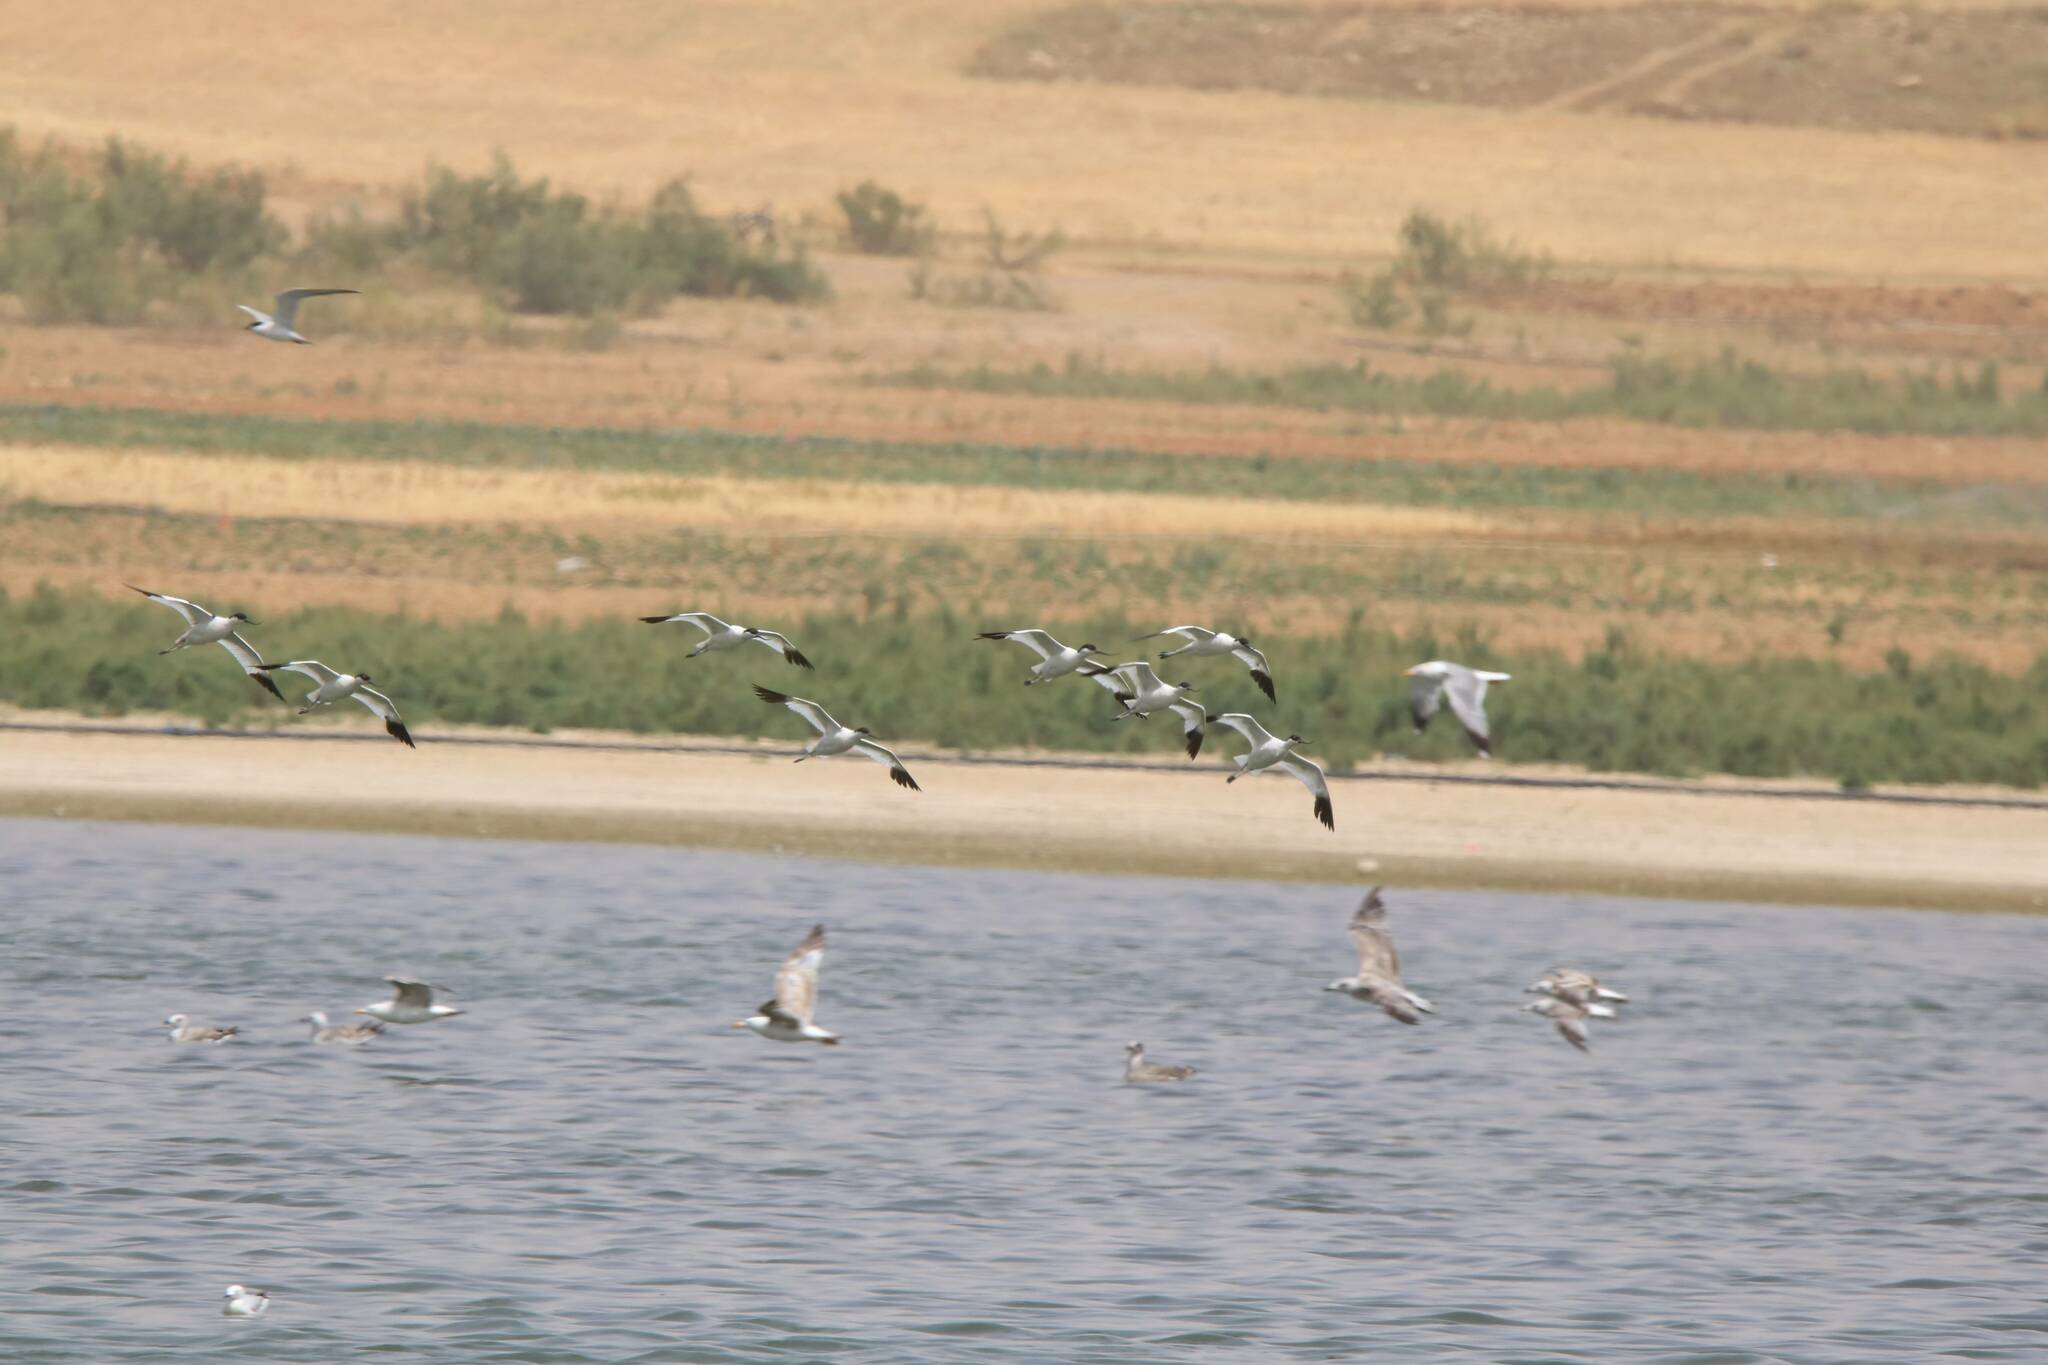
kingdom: Animalia
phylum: Chordata
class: Aves
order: Charadriiformes
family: Recurvirostridae
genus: Recurvirostra
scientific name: Recurvirostra avosetta
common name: Pied avocet
